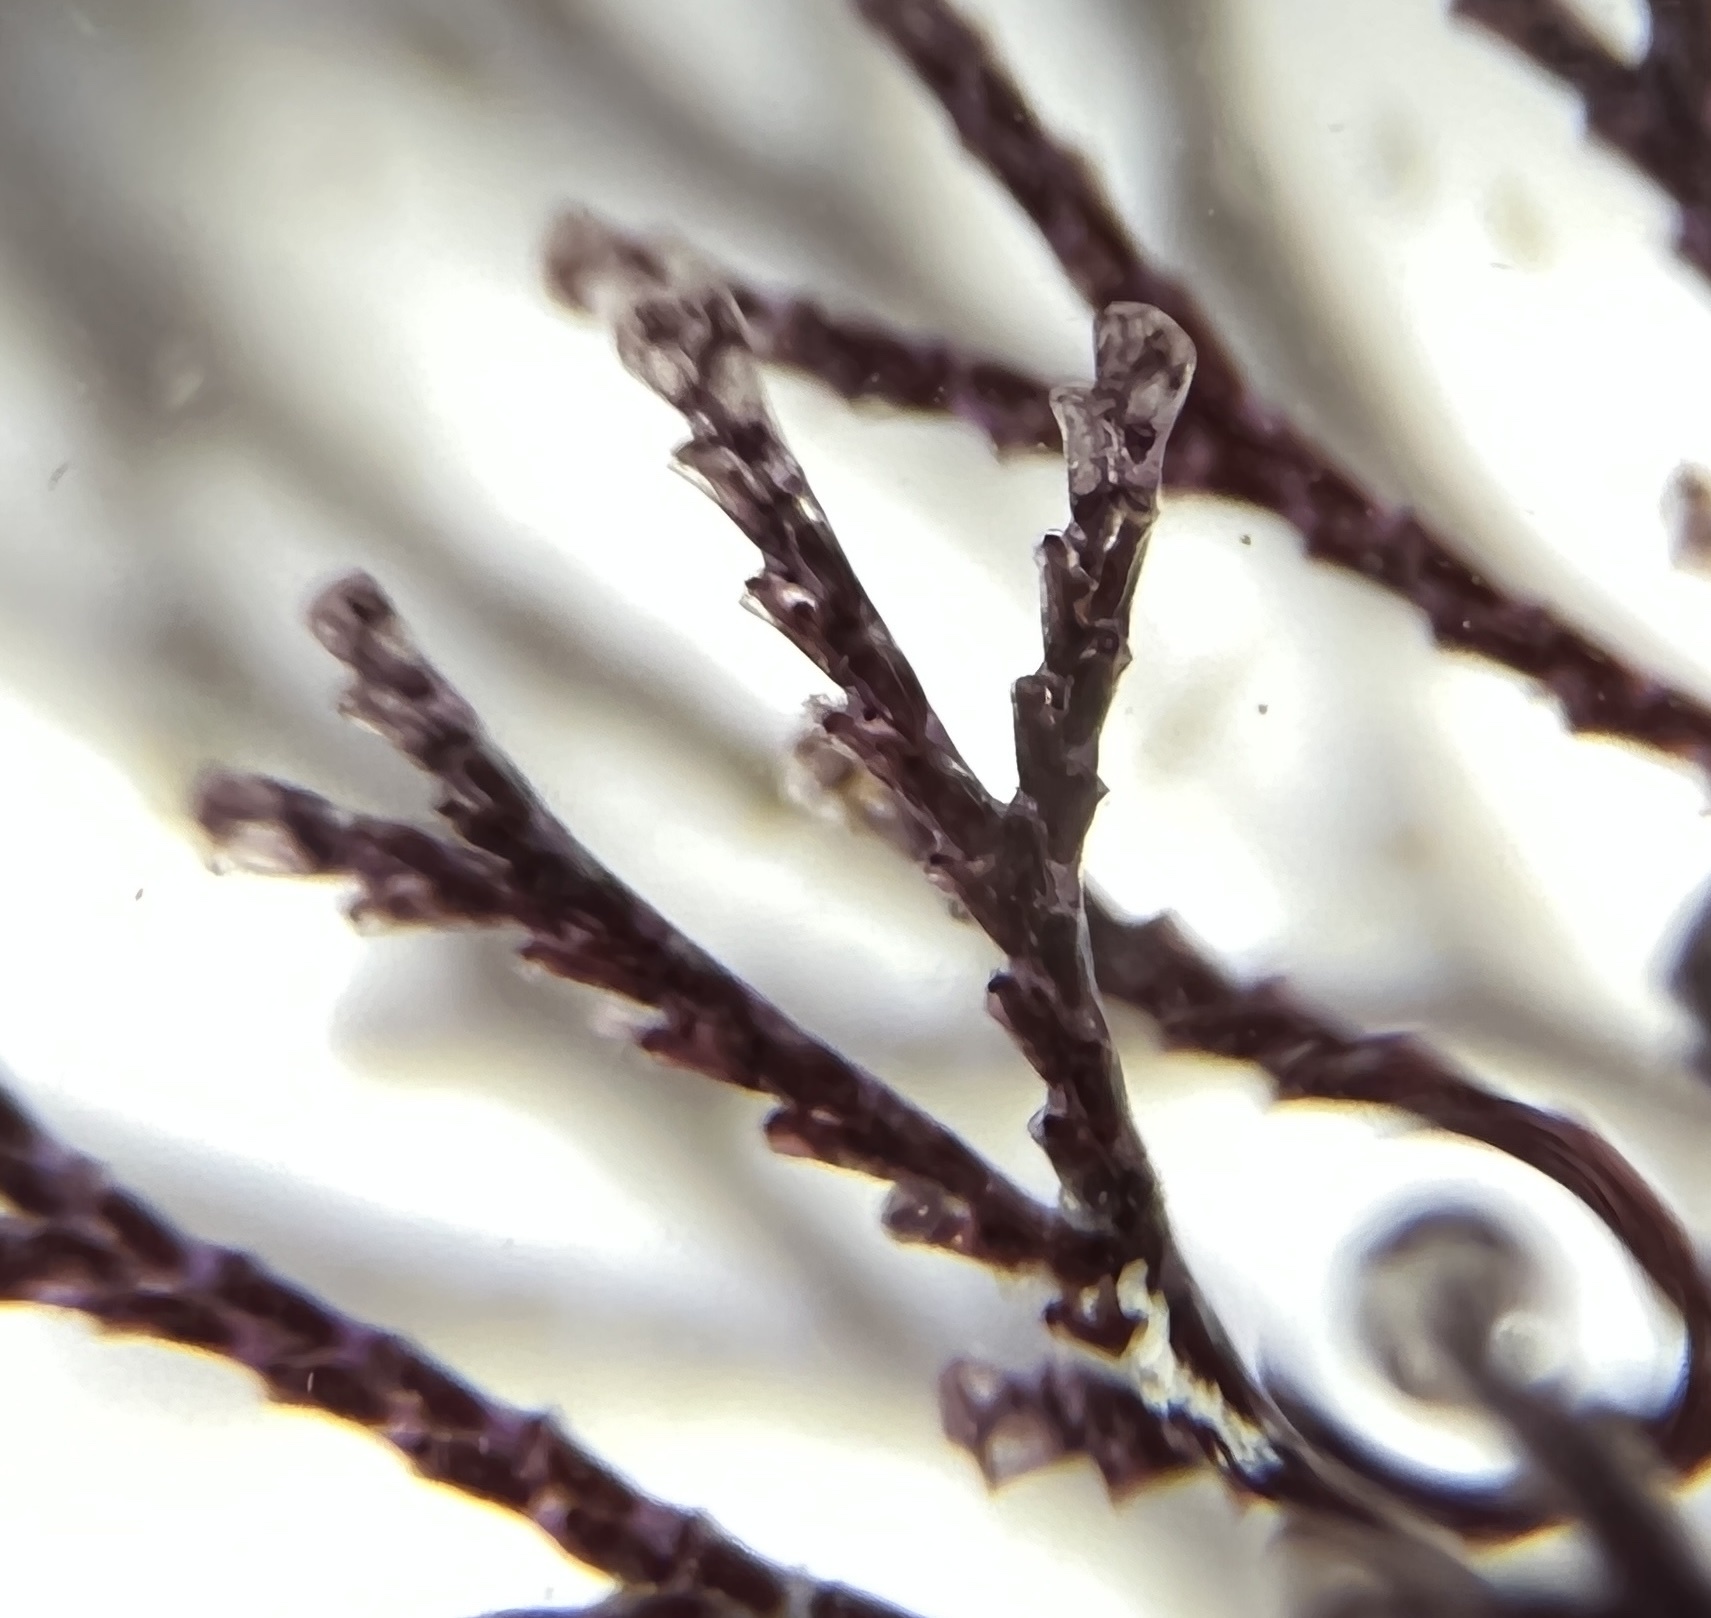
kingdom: Animalia
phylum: Bryozoa
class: Gymnolaemata
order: Cheilostomatida
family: Bugulidae
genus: Bugula
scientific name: Bugula neritina
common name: Brown bryozoan
